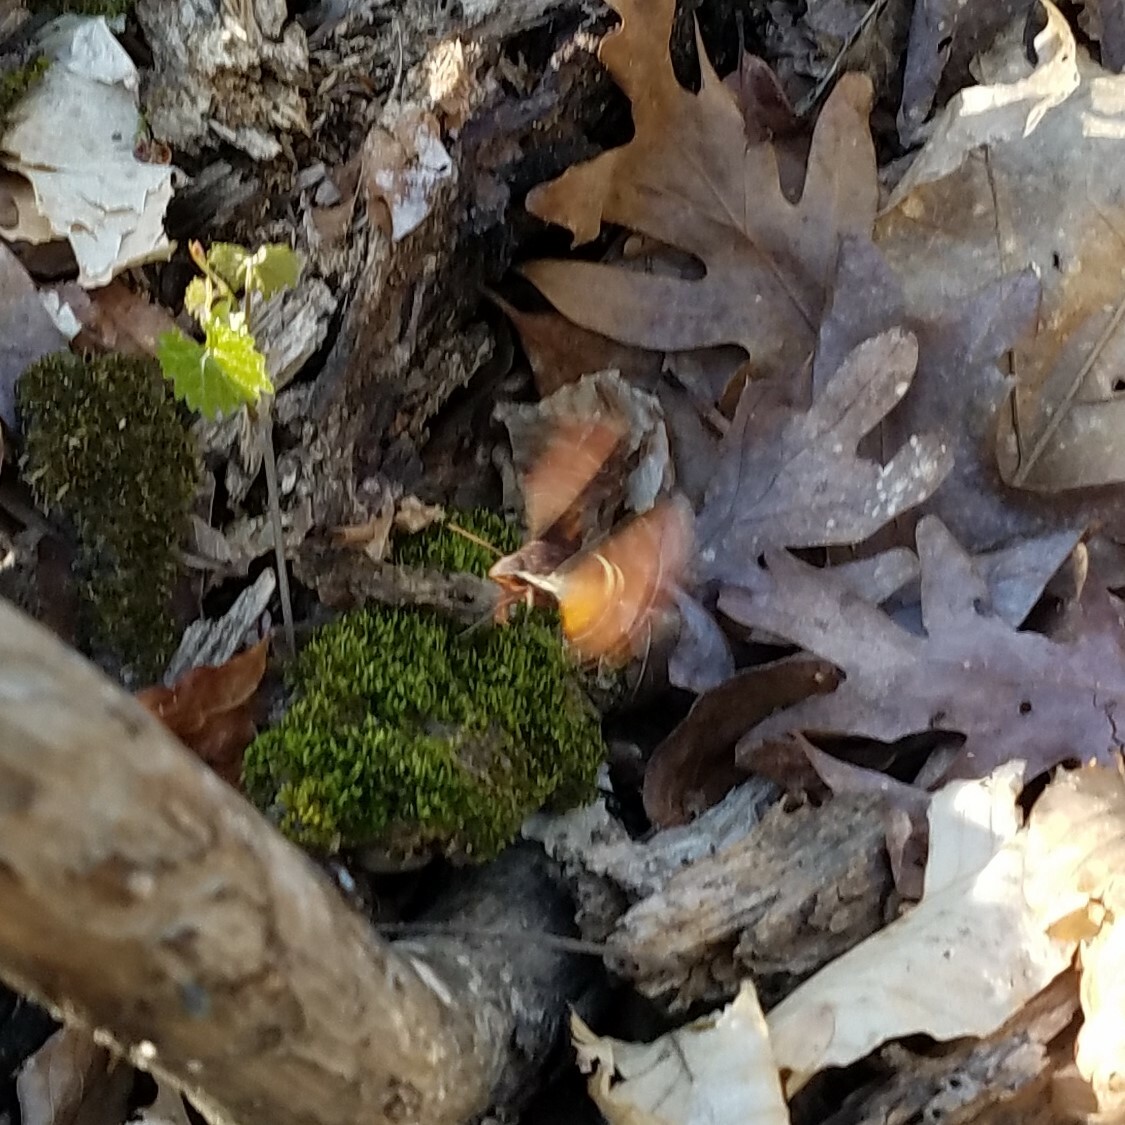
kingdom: Animalia
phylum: Arthropoda
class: Insecta
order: Lepidoptera
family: Sphingidae
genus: Amphion
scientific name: Amphion floridensis
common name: Nessus sphinx
